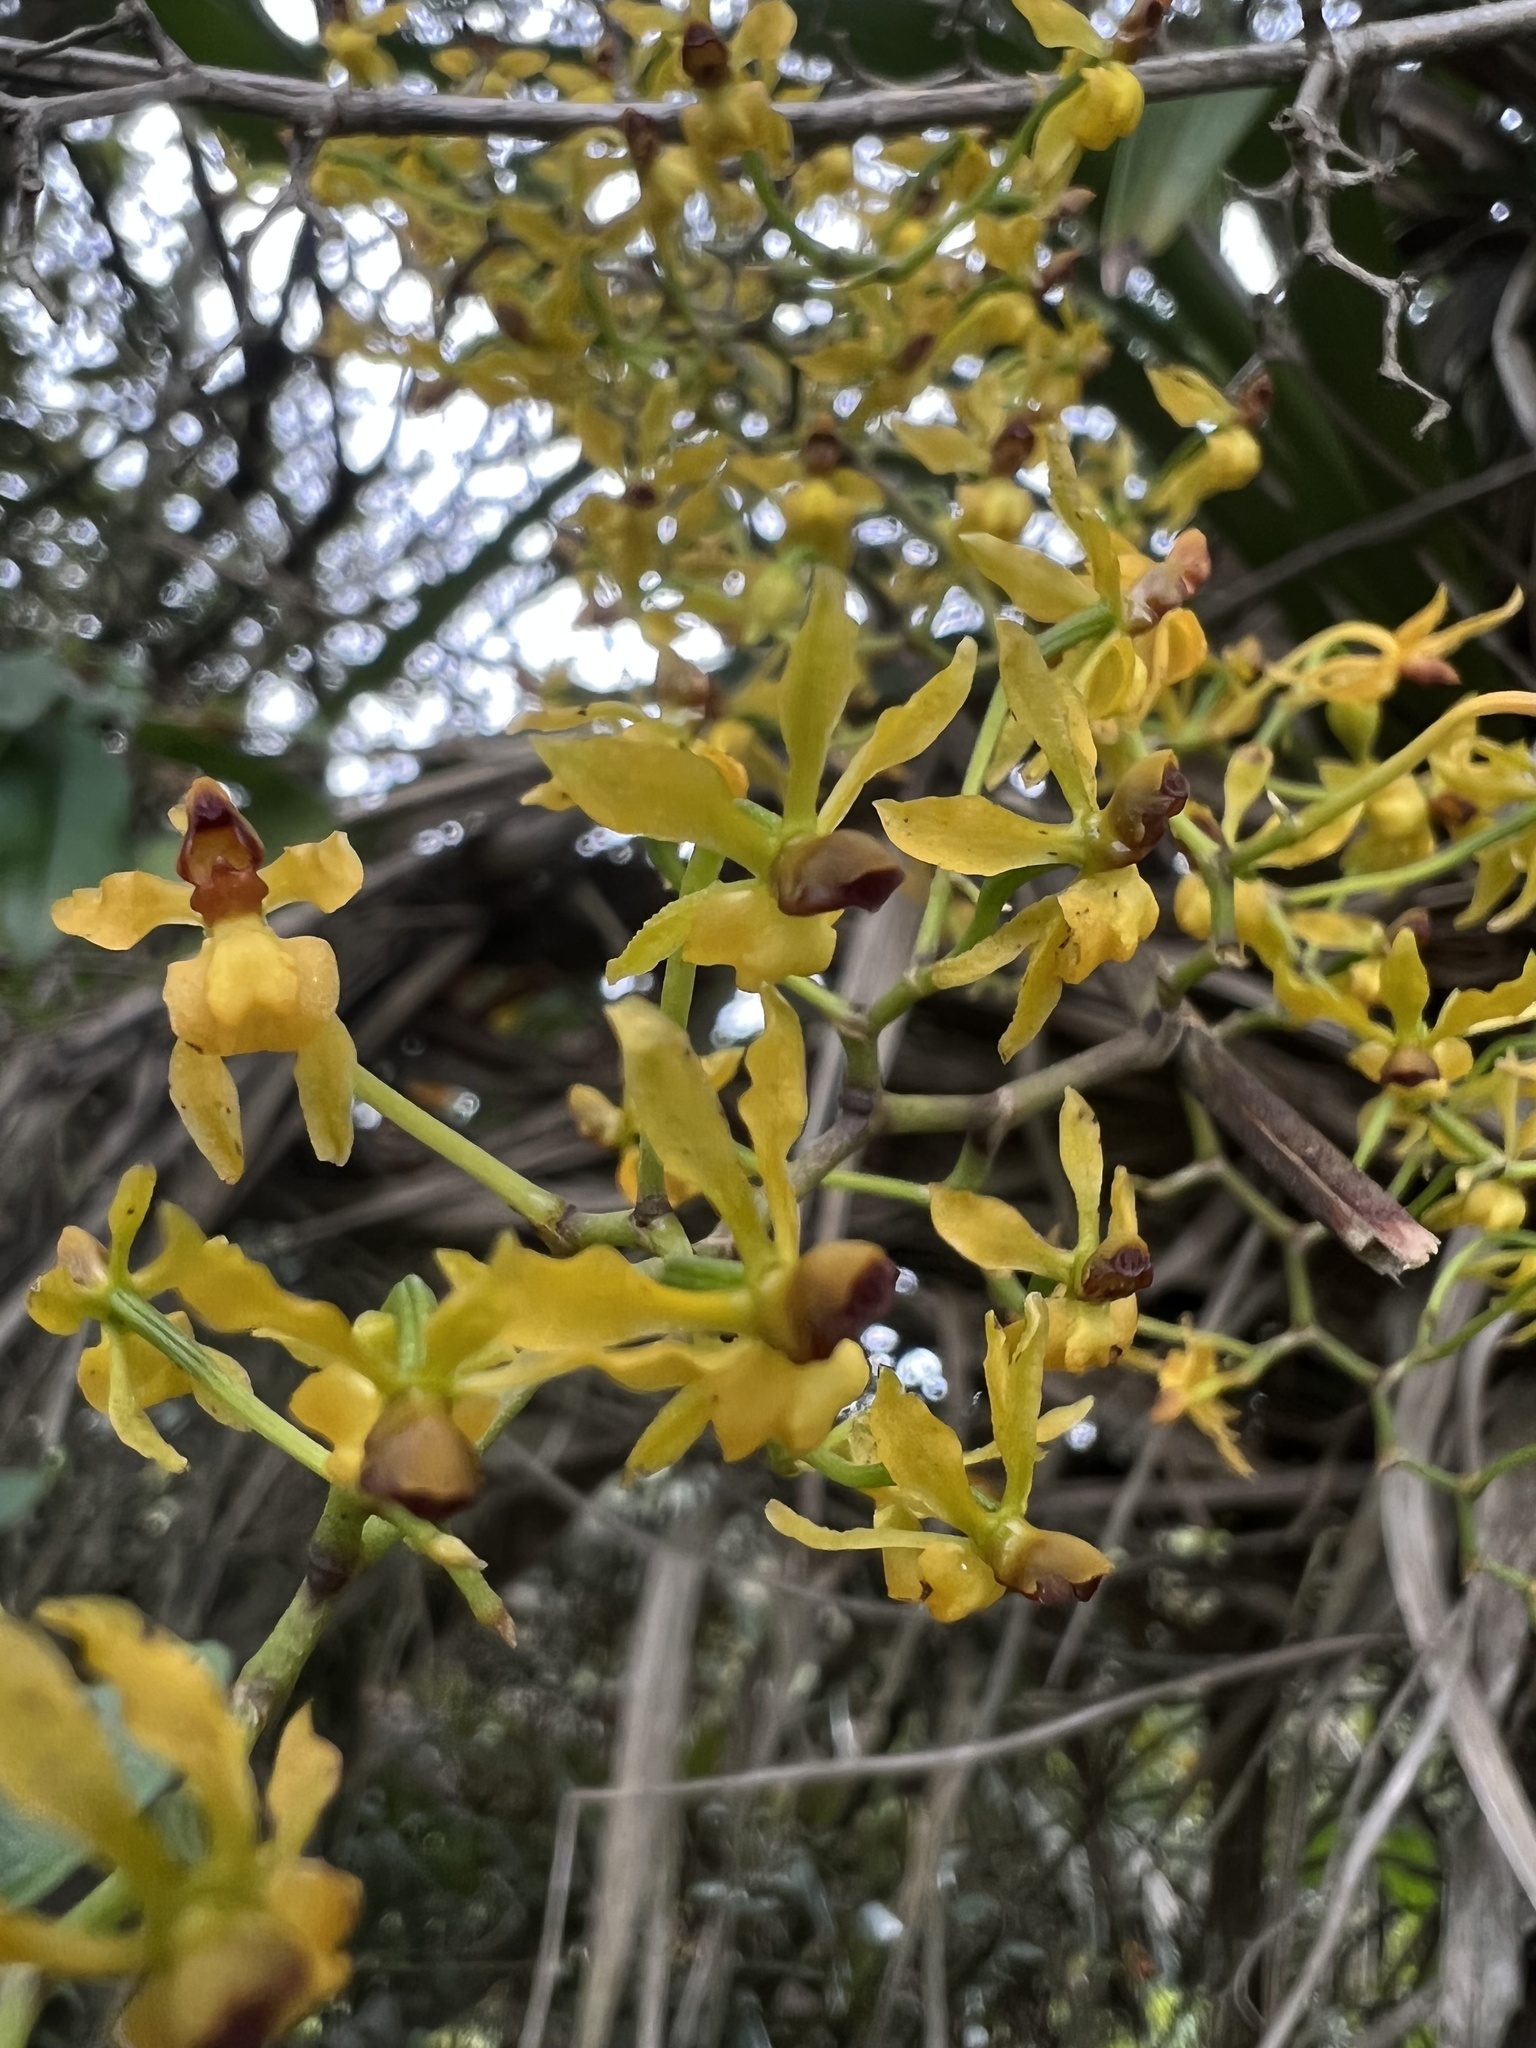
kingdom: Plantae
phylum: Tracheophyta
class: Liliopsida
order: Asparagales
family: Orchidaceae
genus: Cyrtochilum
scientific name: Cyrtochilum murinum
